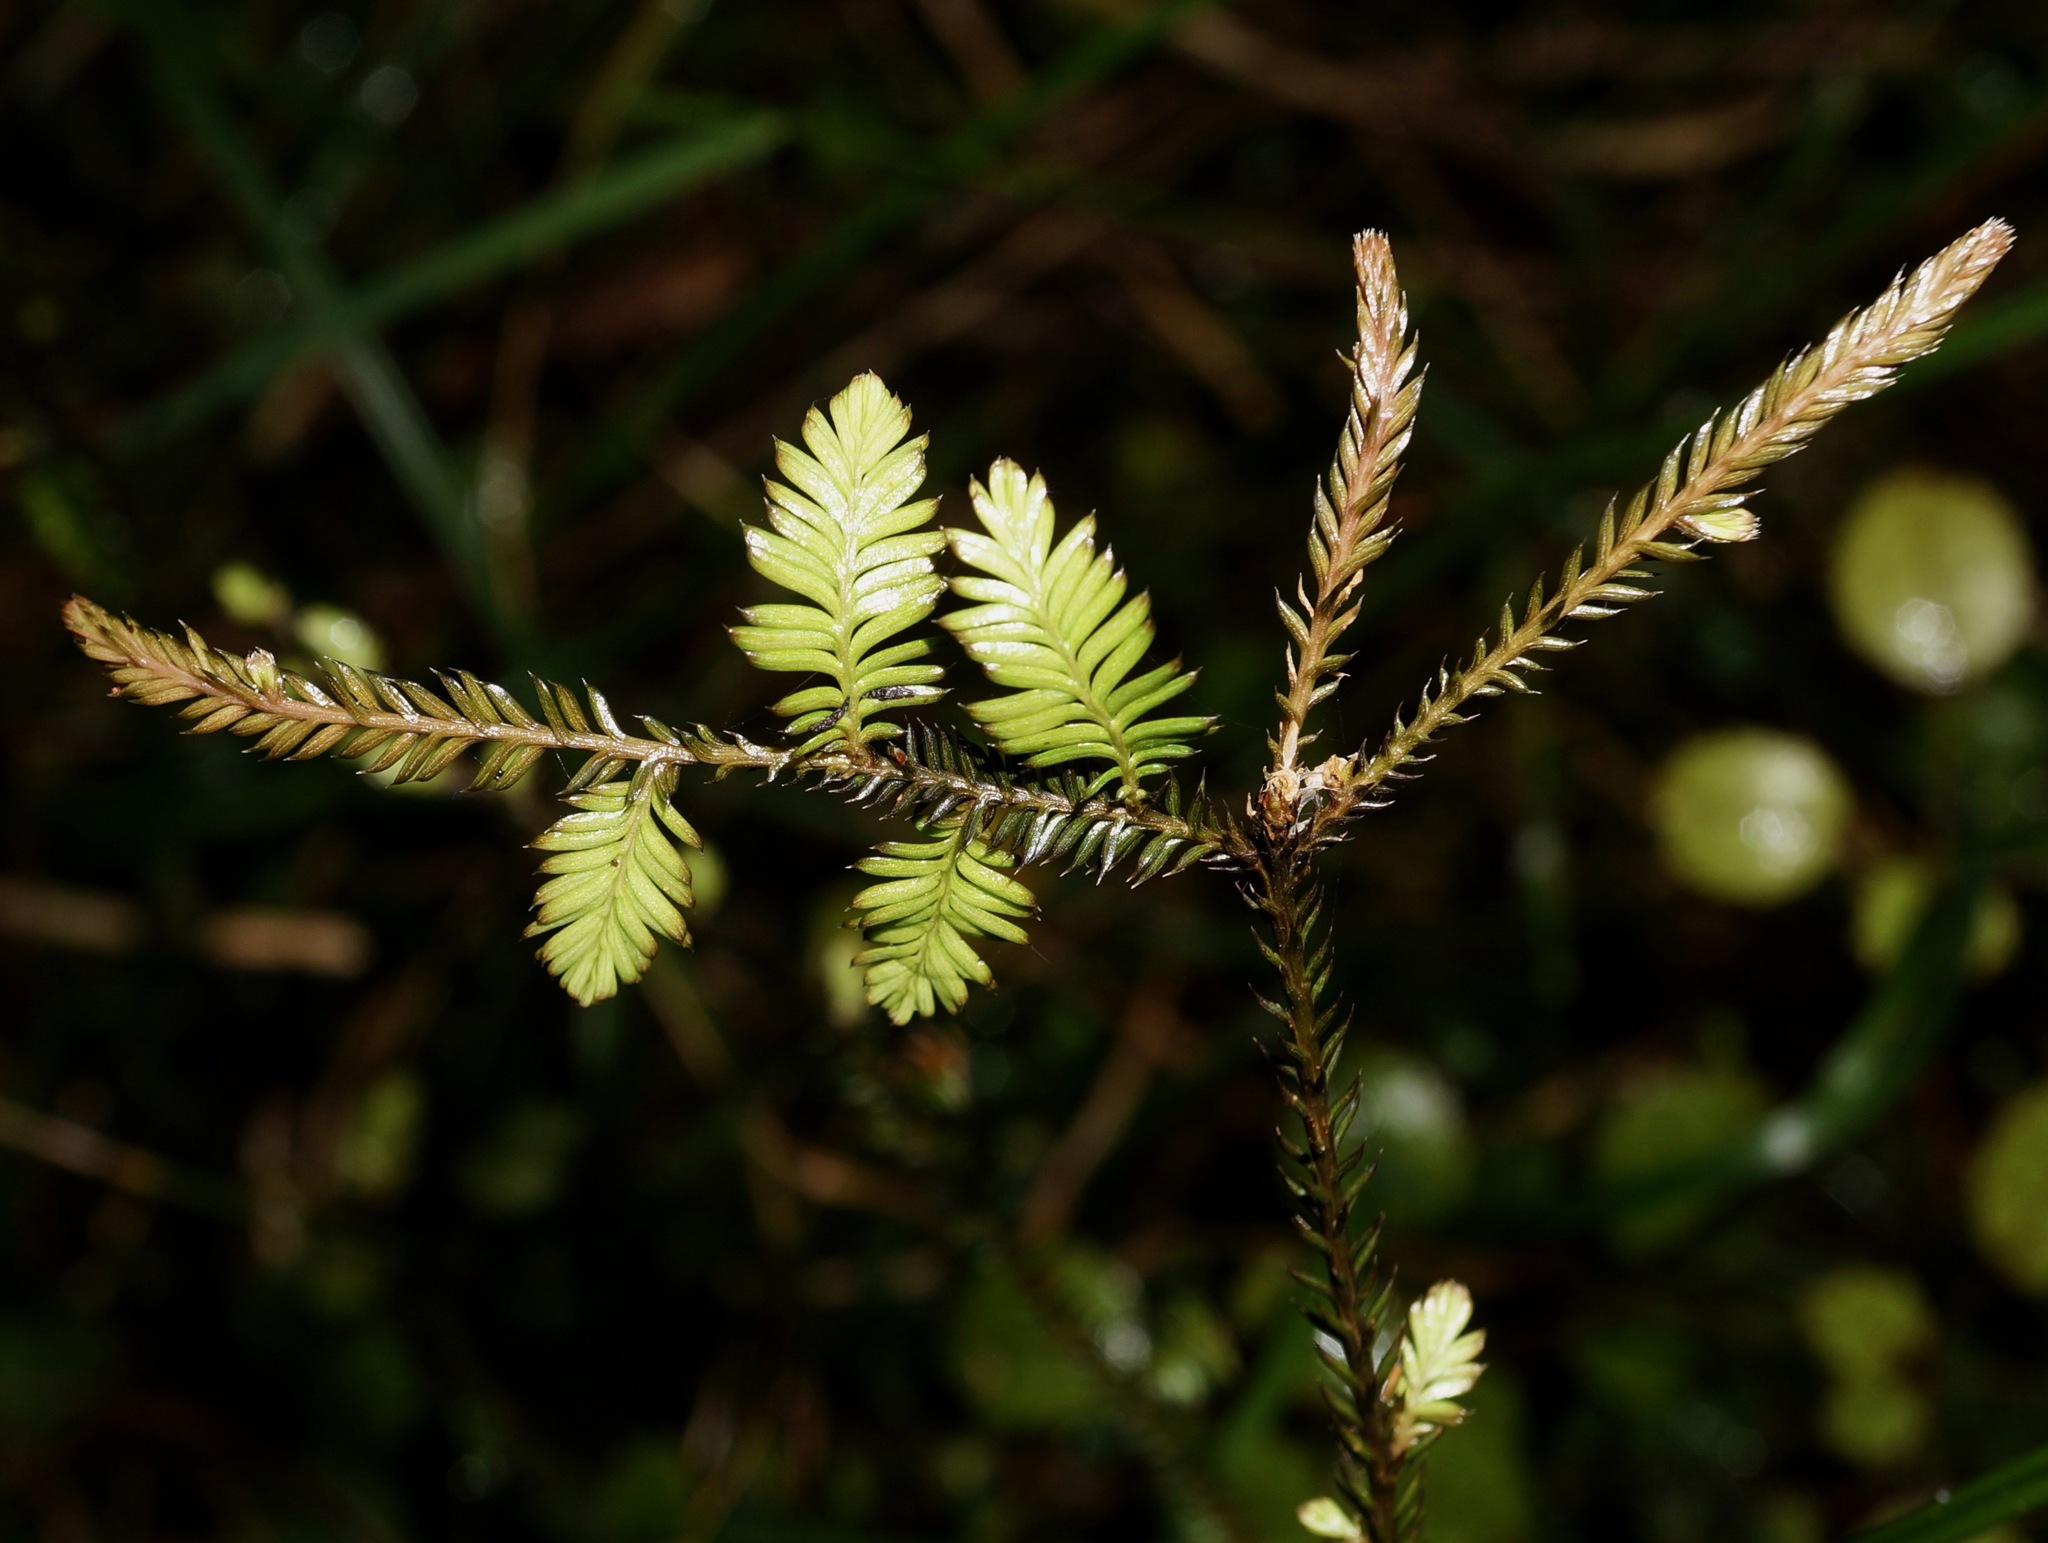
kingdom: Plantae
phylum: Tracheophyta
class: Pinopsida
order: Pinales
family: Podocarpaceae
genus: Dacrycarpus
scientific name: Dacrycarpus dacrydioides
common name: White pine
